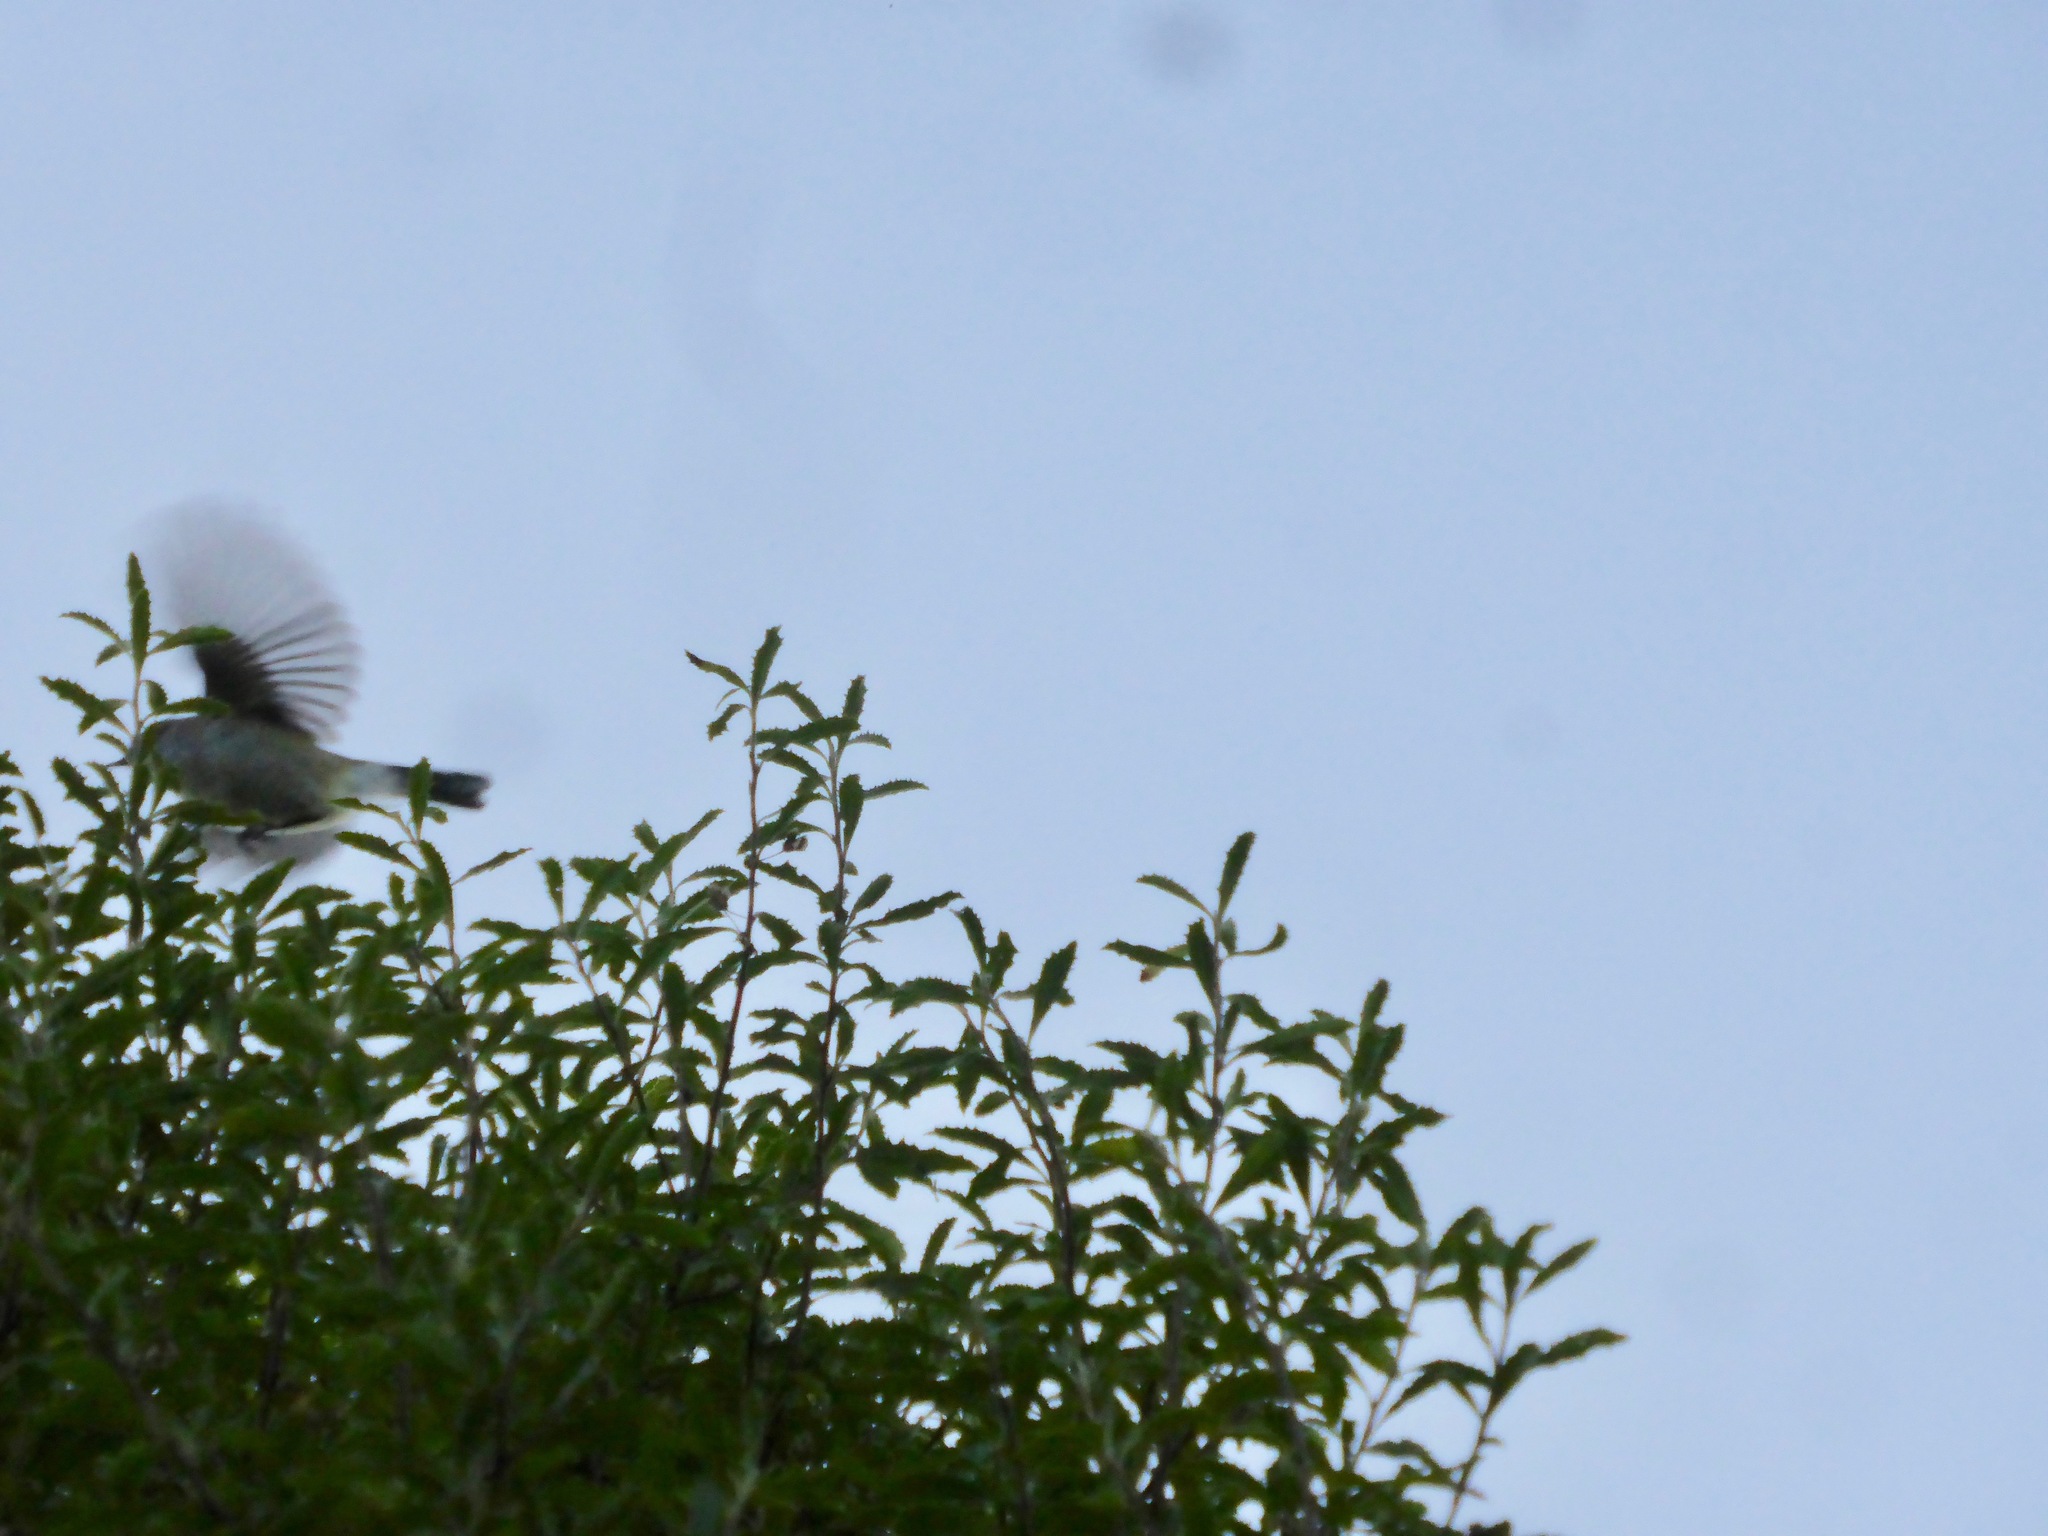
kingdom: Animalia
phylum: Chordata
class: Aves
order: Passeriformes
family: Acanthizidae
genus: Gerygone
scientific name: Gerygone igata
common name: Grey gerygone
